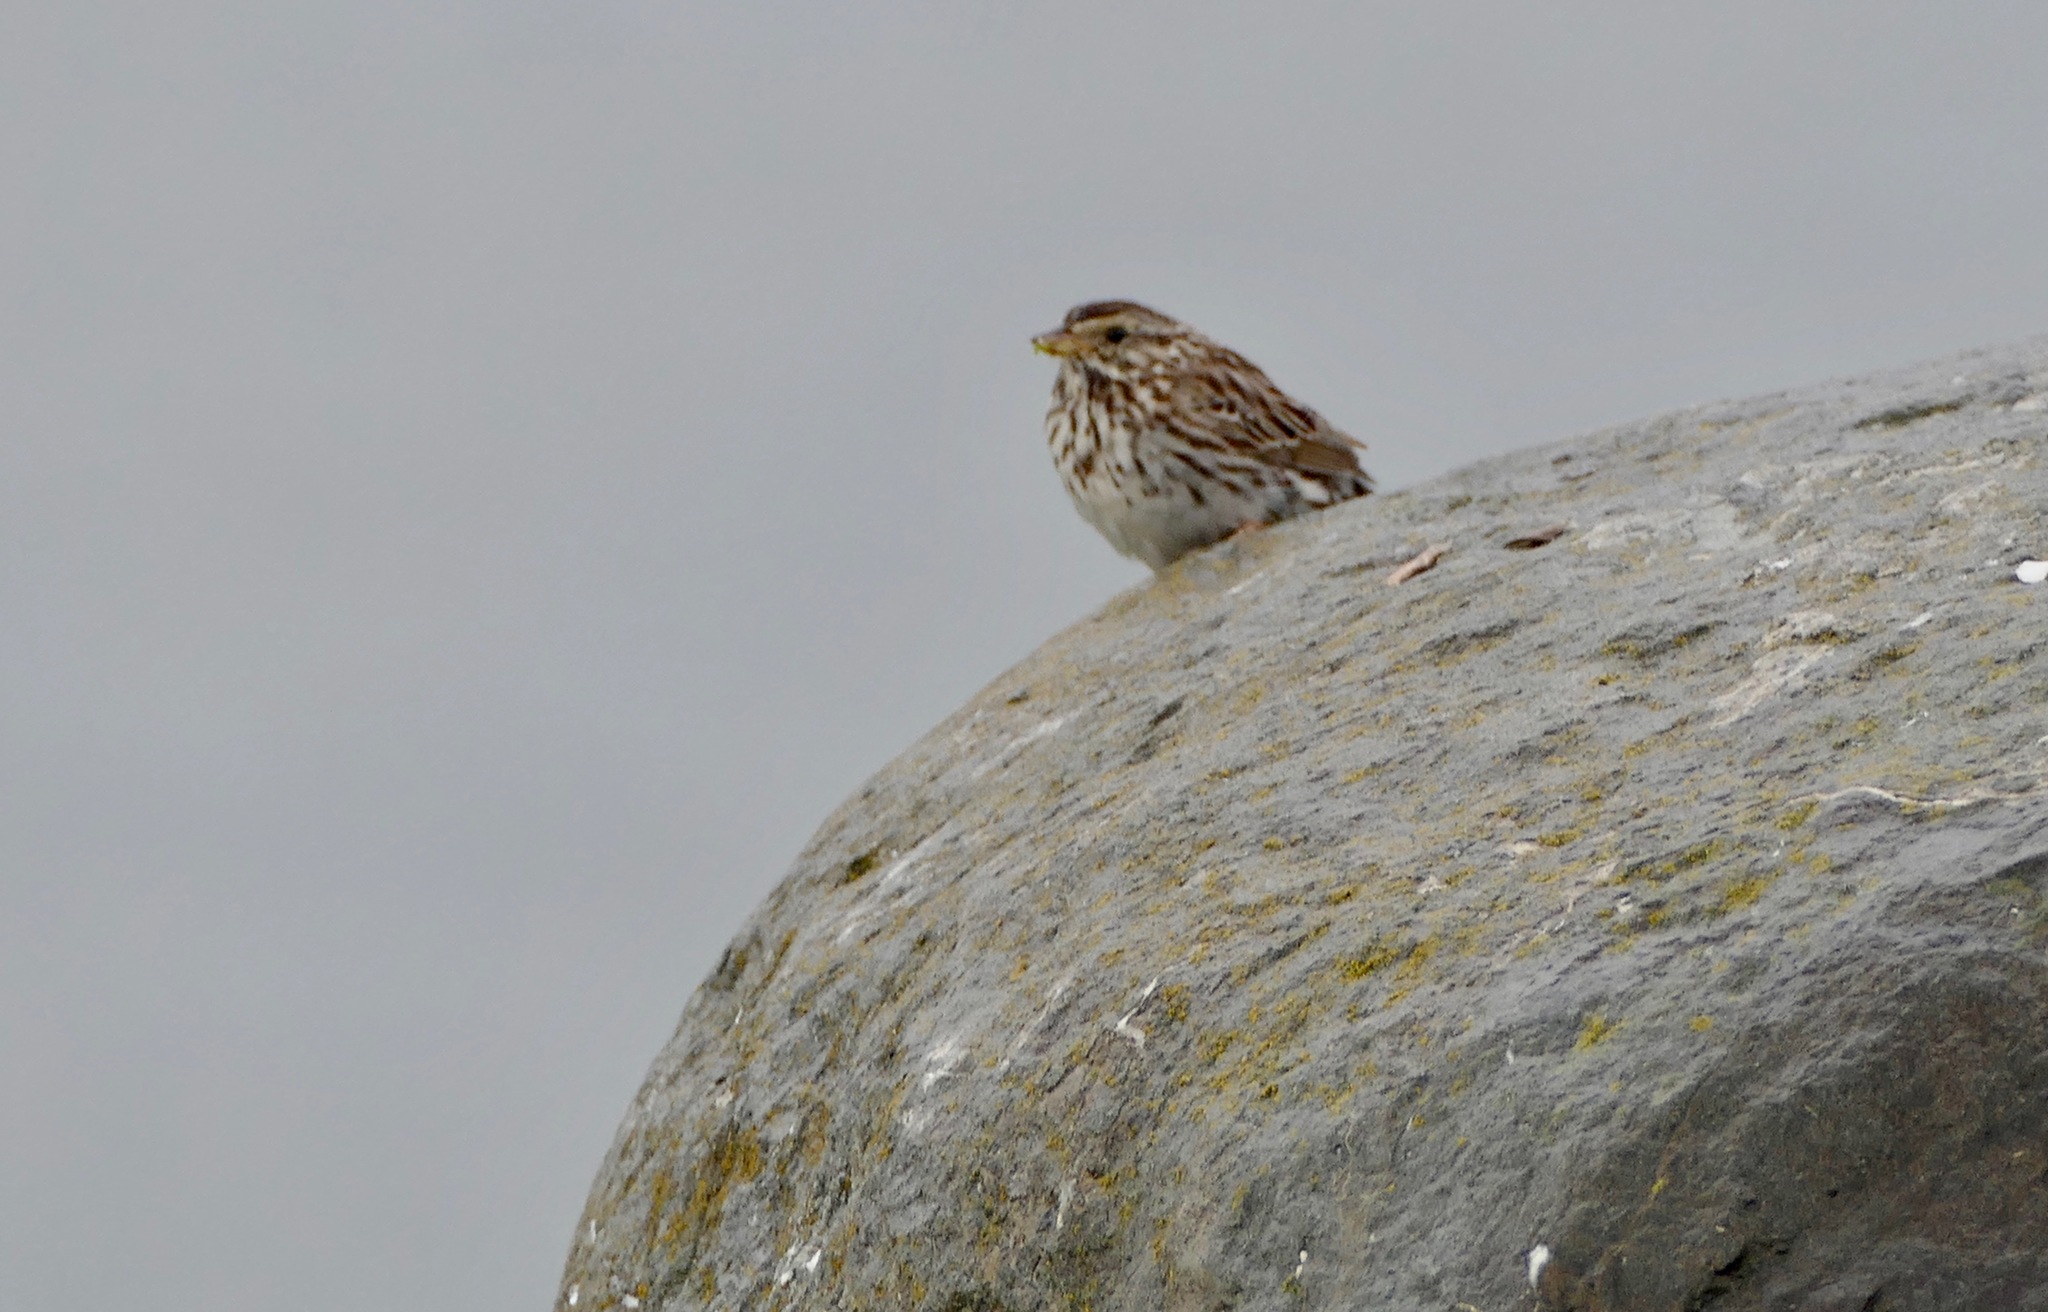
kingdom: Animalia
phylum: Chordata
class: Aves
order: Passeriformes
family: Passerellidae
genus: Passerculus
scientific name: Passerculus sandwichensis
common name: Savannah sparrow
